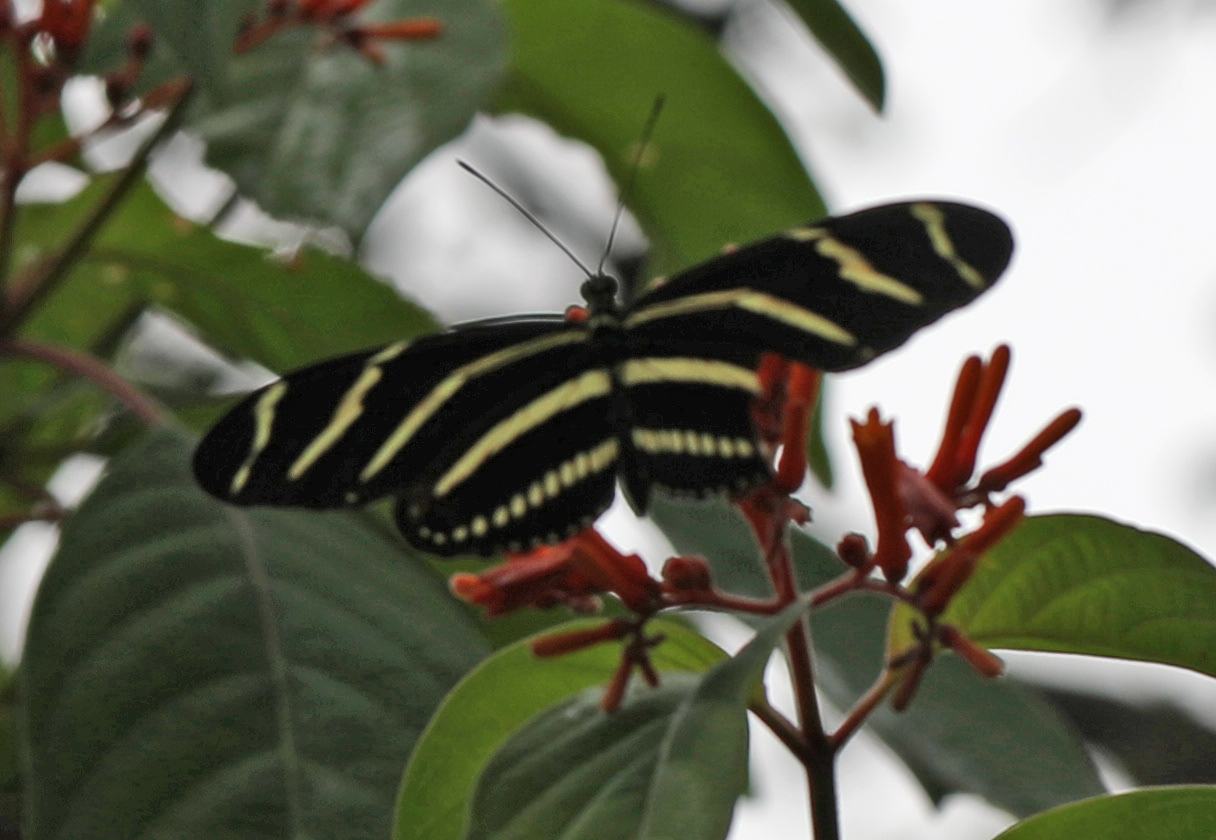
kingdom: Animalia
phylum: Arthropoda
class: Insecta
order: Lepidoptera
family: Nymphalidae
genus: Heliconius
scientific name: Heliconius charithonia
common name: Zebra long wing
